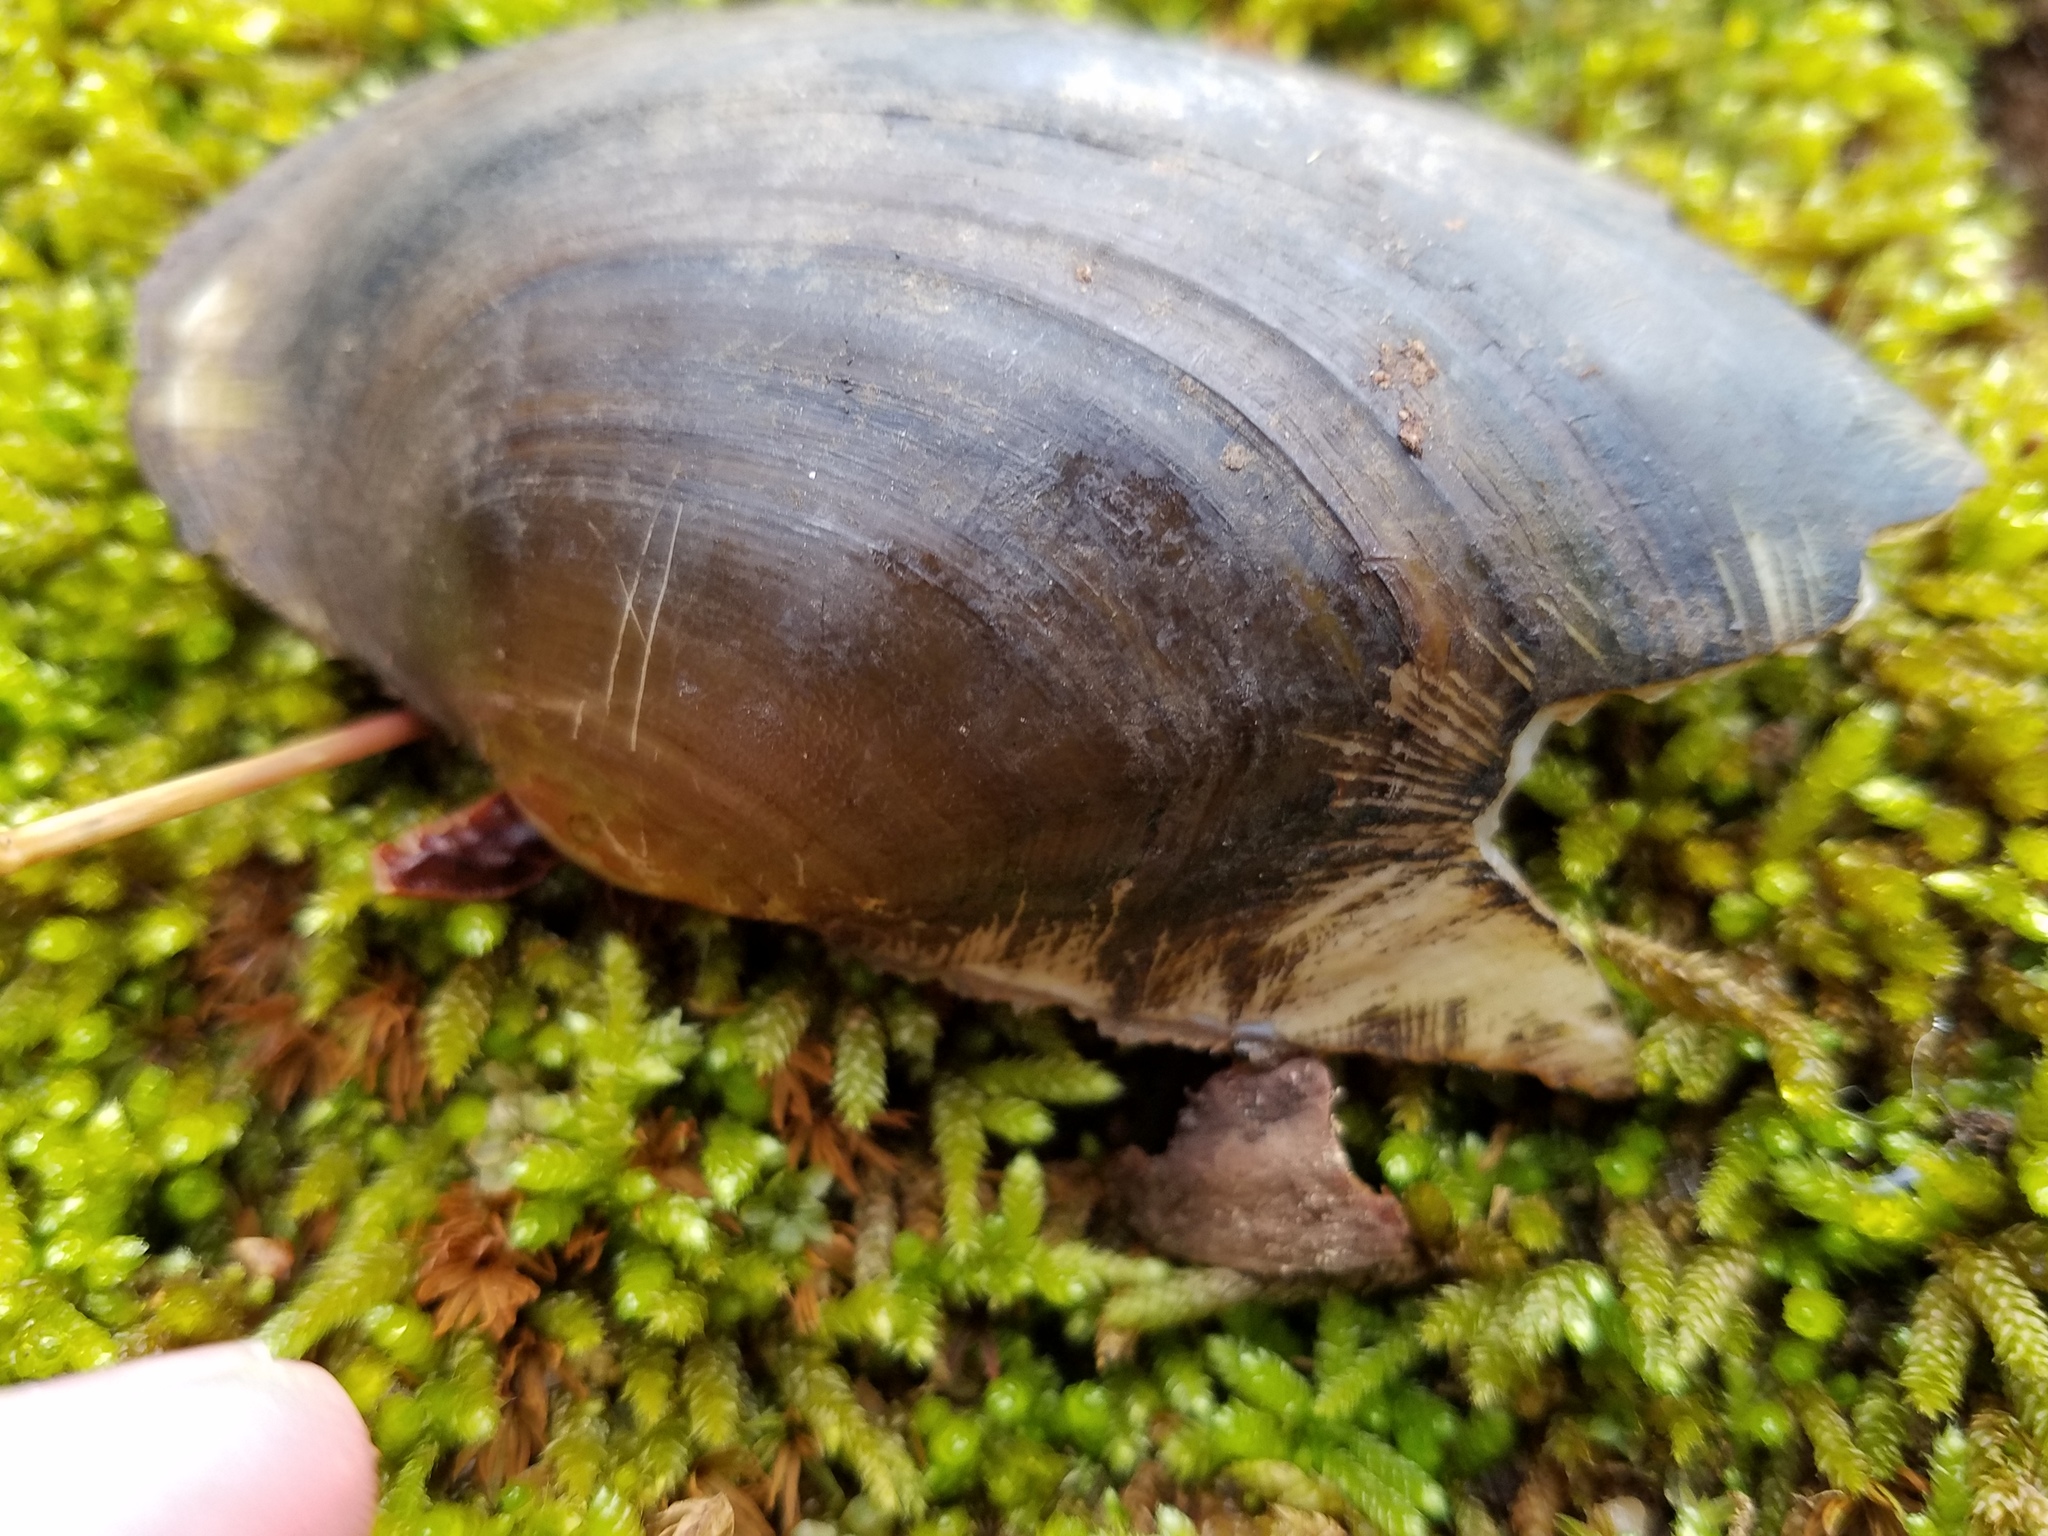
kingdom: Animalia
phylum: Mollusca
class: Bivalvia
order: Unionida
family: Unionidae
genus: Pyganodon
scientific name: Pyganodon gibbosa
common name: Inflated floater
